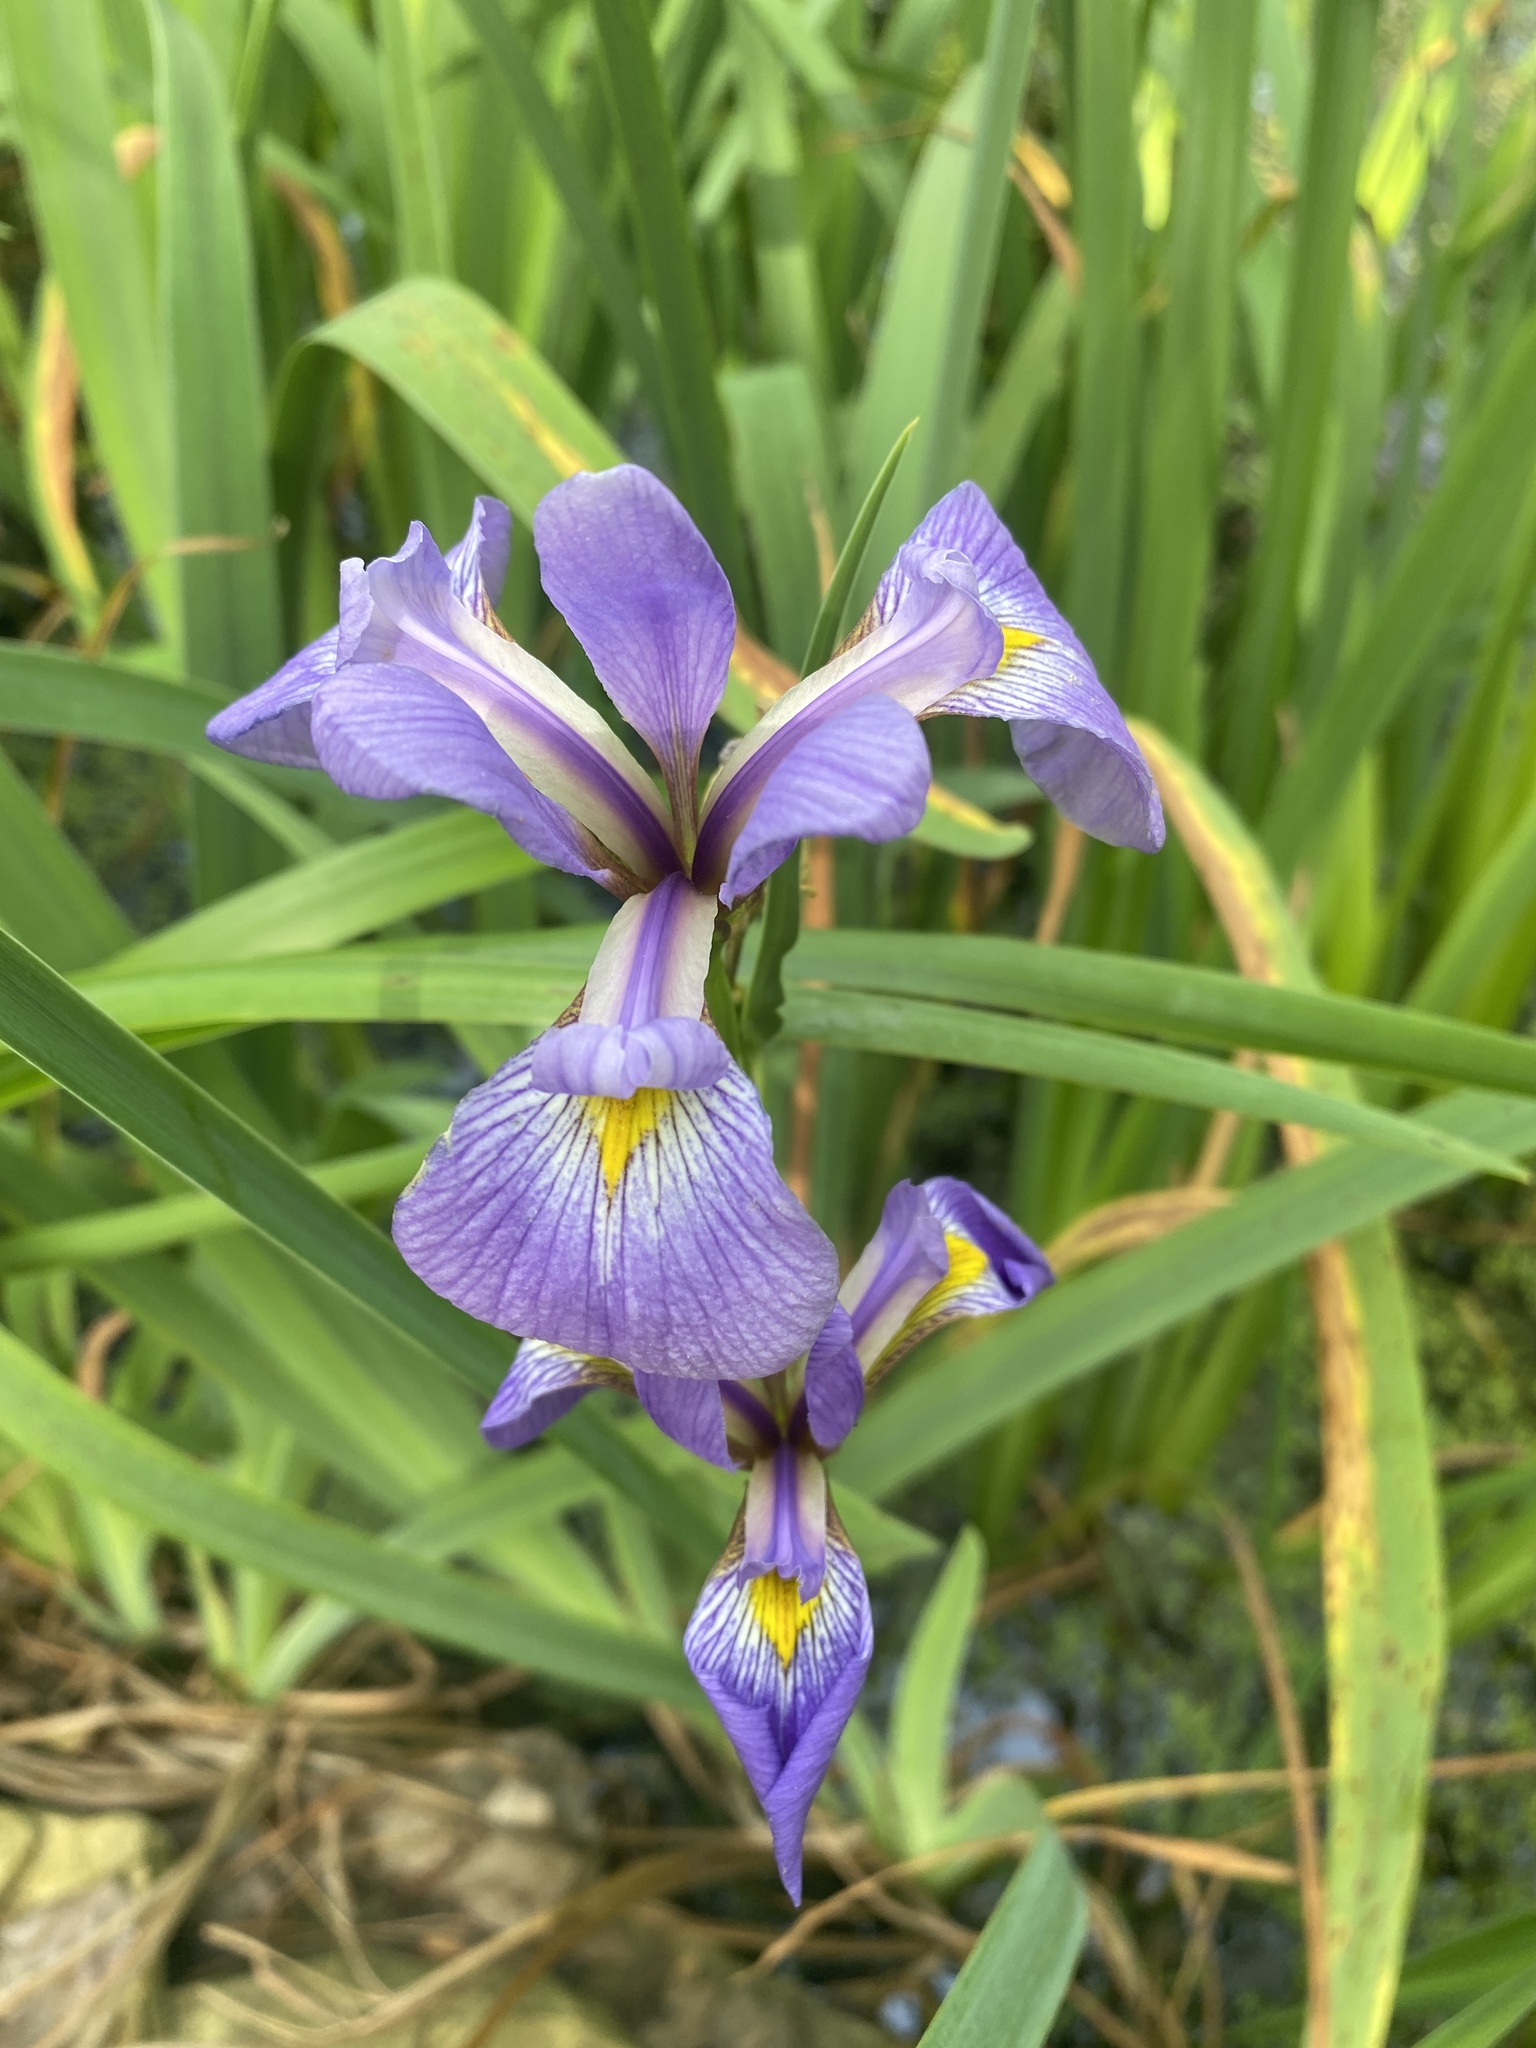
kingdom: Plantae
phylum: Tracheophyta
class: Liliopsida
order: Asparagales
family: Iridaceae
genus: Iris
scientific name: Iris virginica
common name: Southern blue flag
